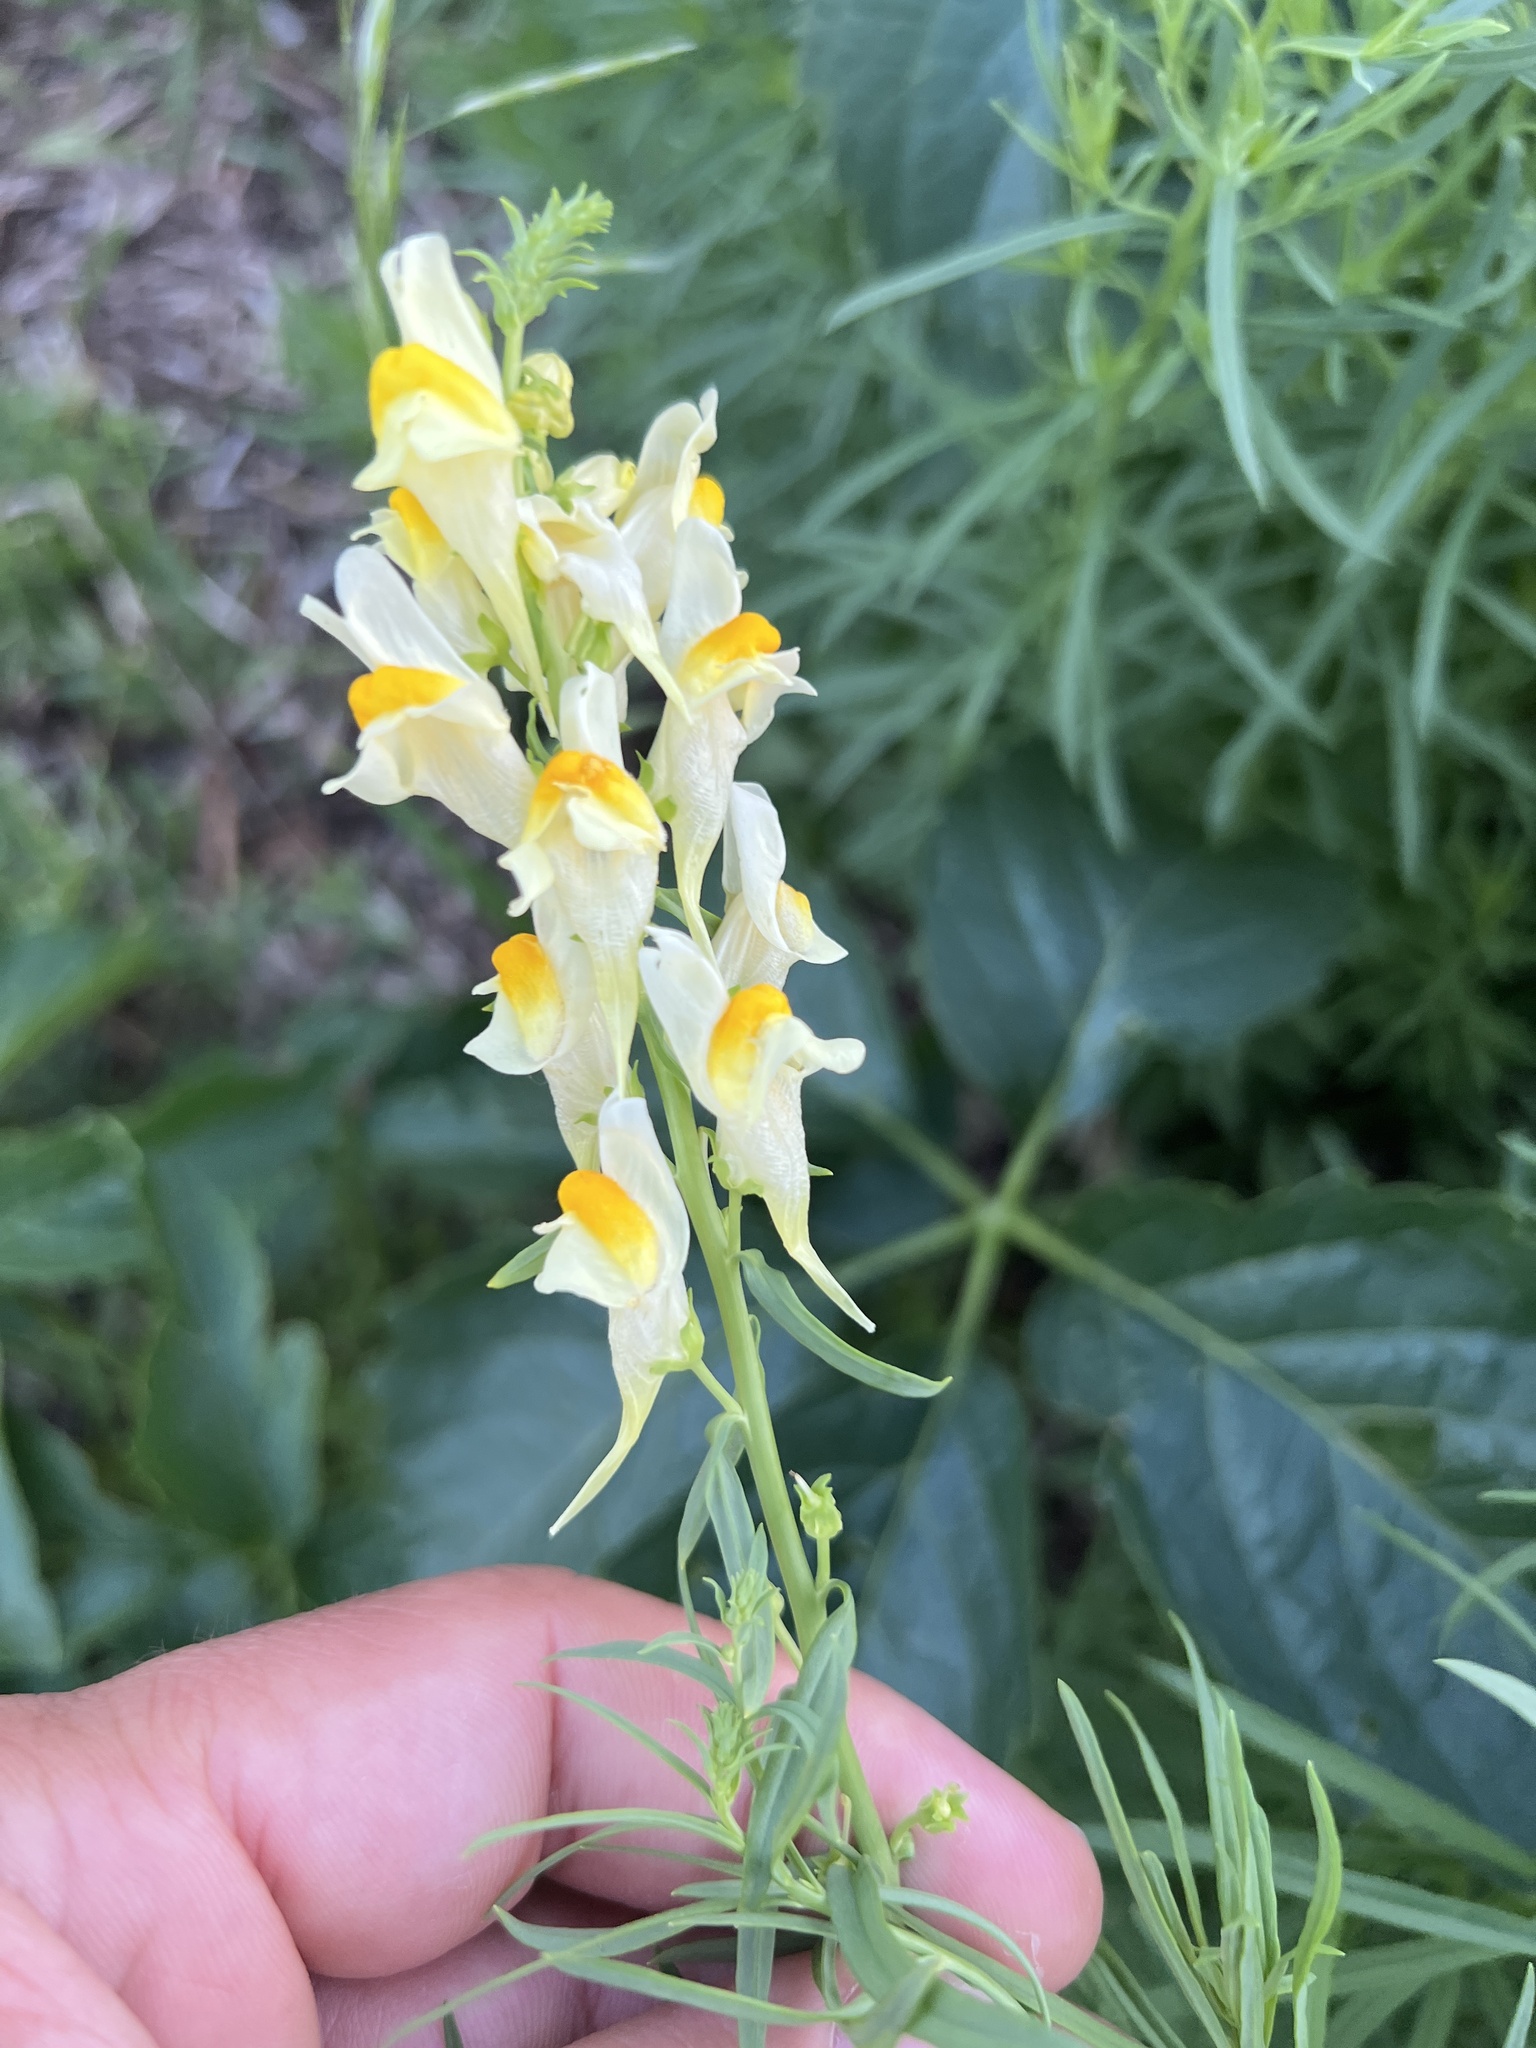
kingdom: Plantae
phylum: Tracheophyta
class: Magnoliopsida
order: Lamiales
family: Plantaginaceae
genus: Linaria
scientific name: Linaria vulgaris
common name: Butter and eggs
